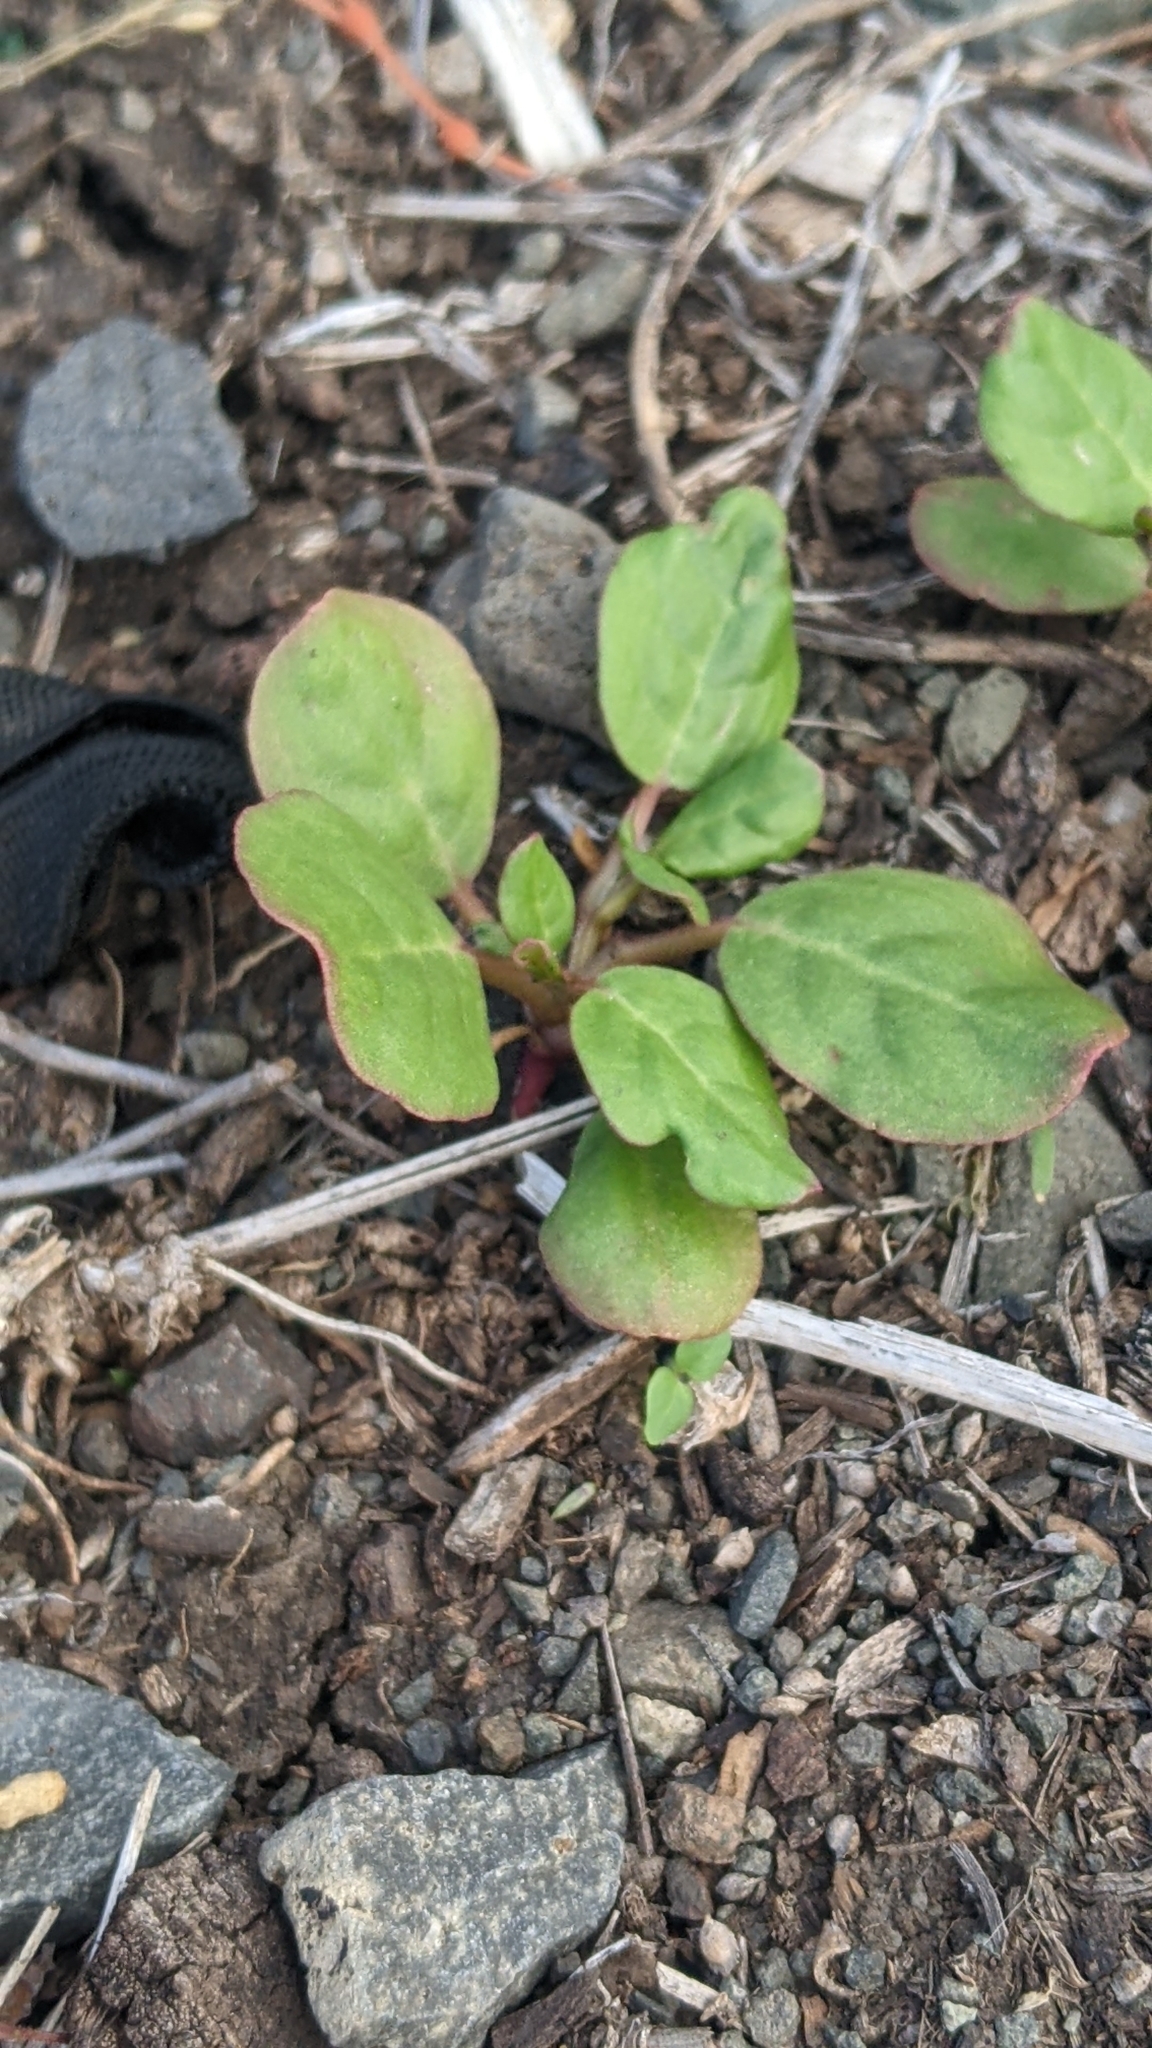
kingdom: Plantae
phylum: Tracheophyta
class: Magnoliopsida
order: Caryophyllales
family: Aizoaceae
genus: Trianthema
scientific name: Trianthema portulacastrum
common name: Desert horsepurslane
